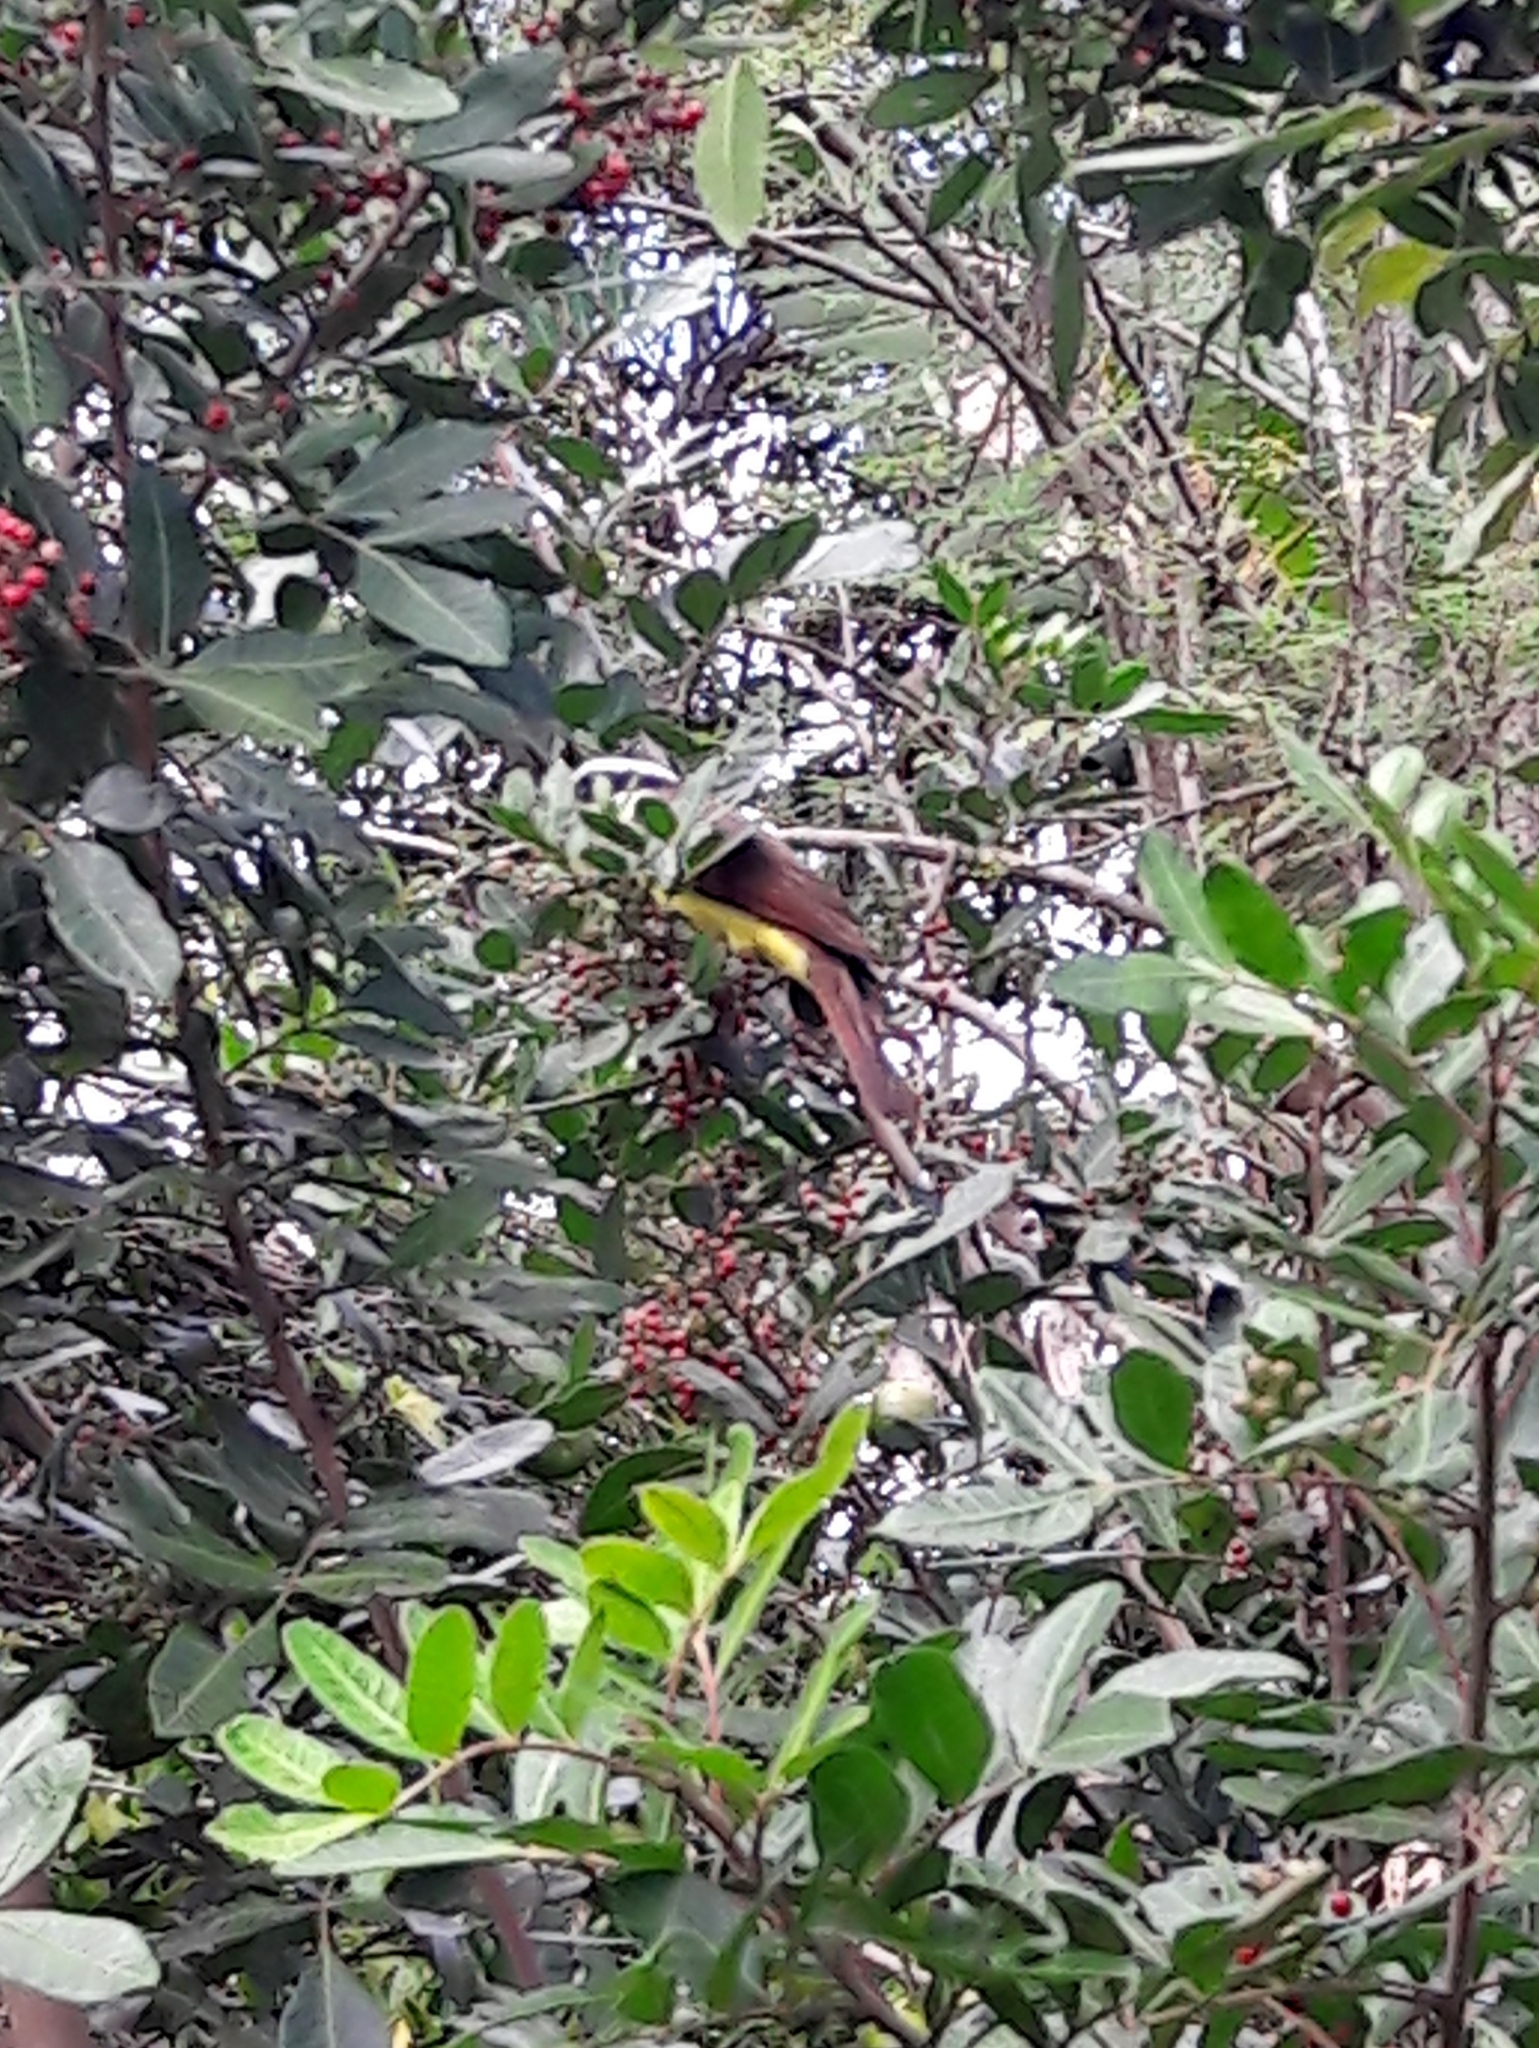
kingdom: Animalia
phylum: Chordata
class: Aves
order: Passeriformes
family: Tyrannidae
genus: Pitangus
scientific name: Pitangus sulphuratus
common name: Great kiskadee
